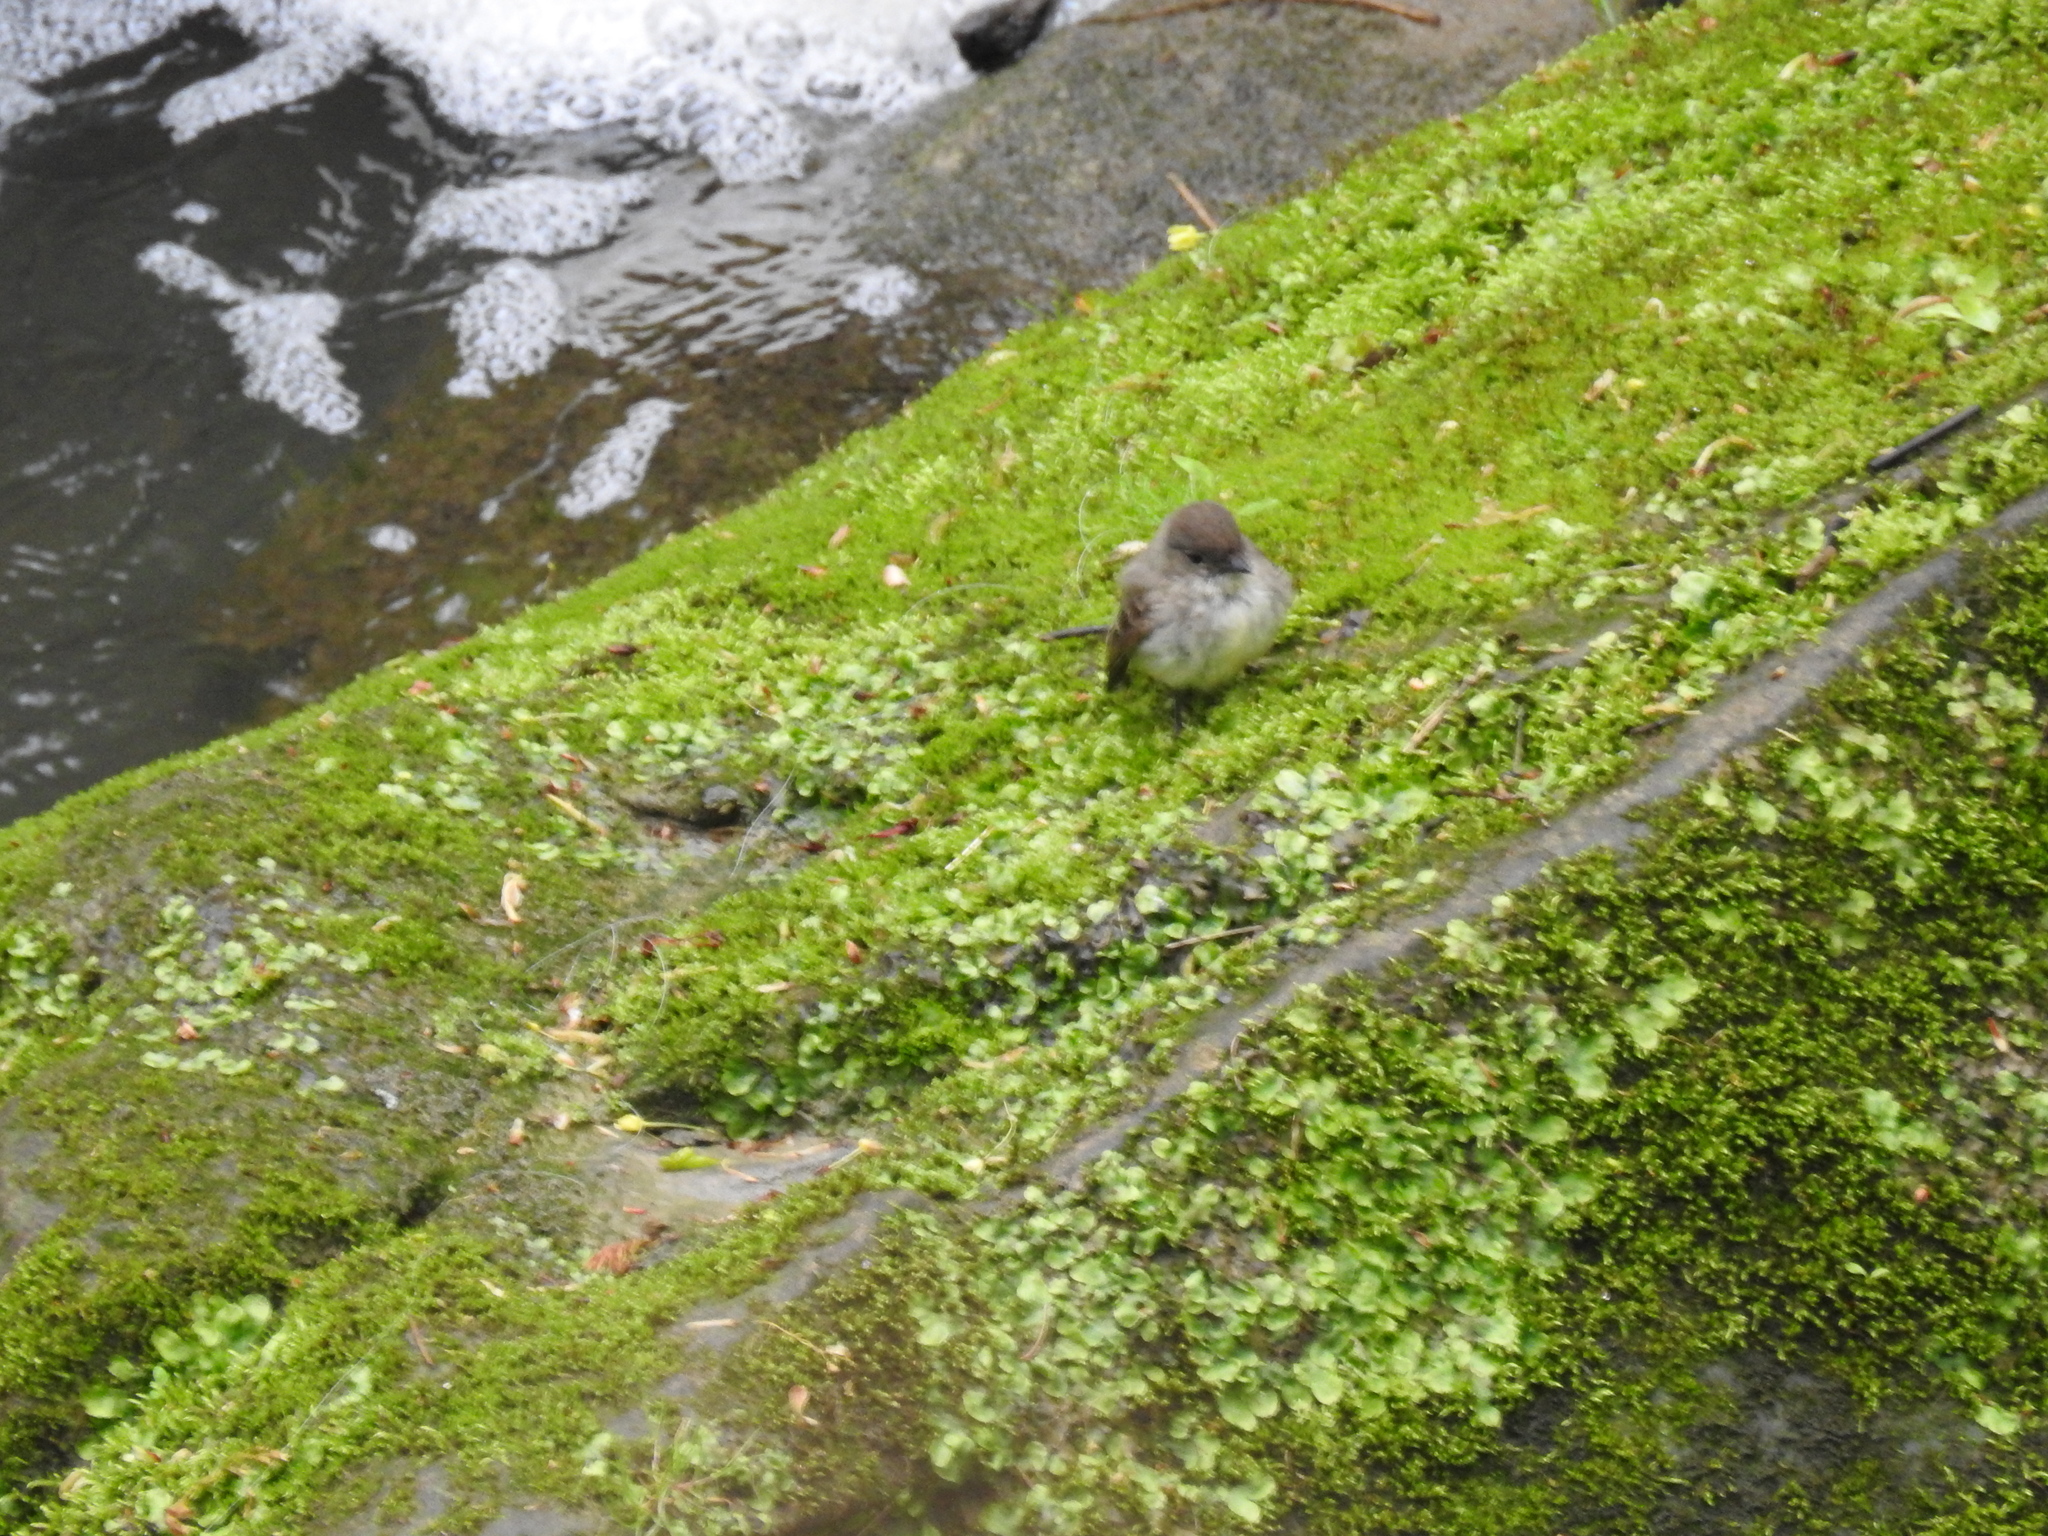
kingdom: Animalia
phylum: Chordata
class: Aves
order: Passeriformes
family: Tyrannidae
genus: Sayornis
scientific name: Sayornis phoebe
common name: Eastern phoebe
